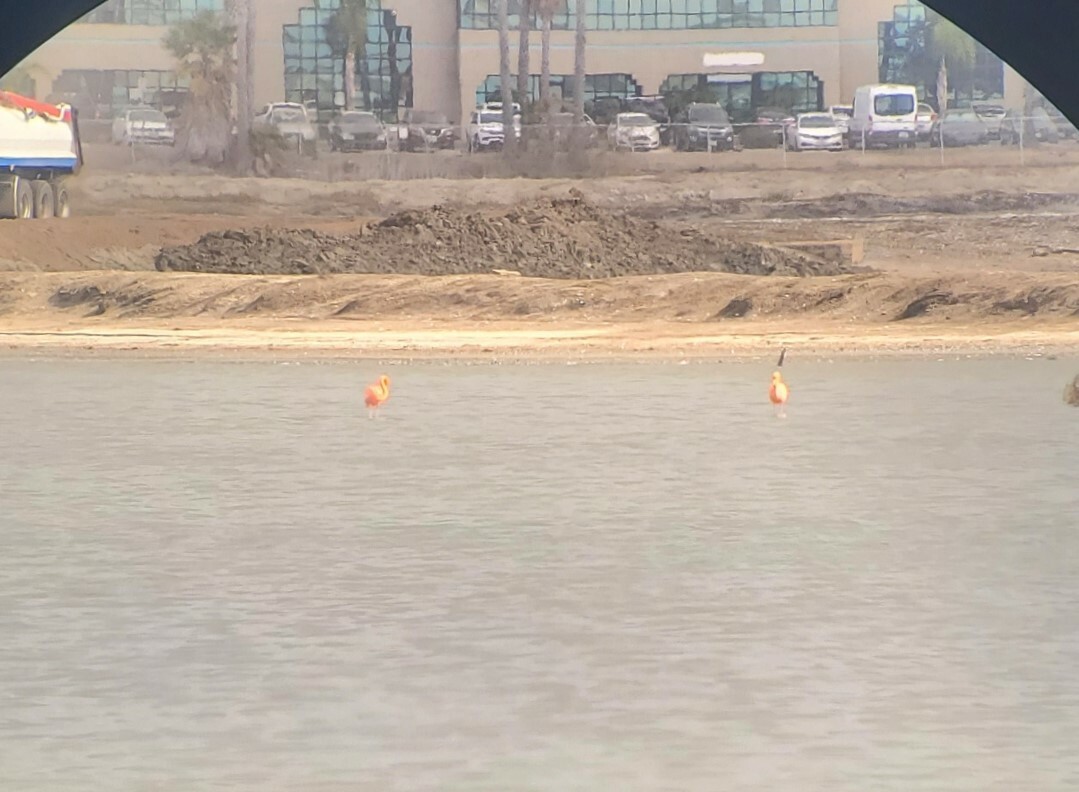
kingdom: Animalia
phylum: Chordata
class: Aves
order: Phoenicopteriformes
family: Phoenicopteridae
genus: Phoenicopterus
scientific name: Phoenicopterus ruber
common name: American flamingo
